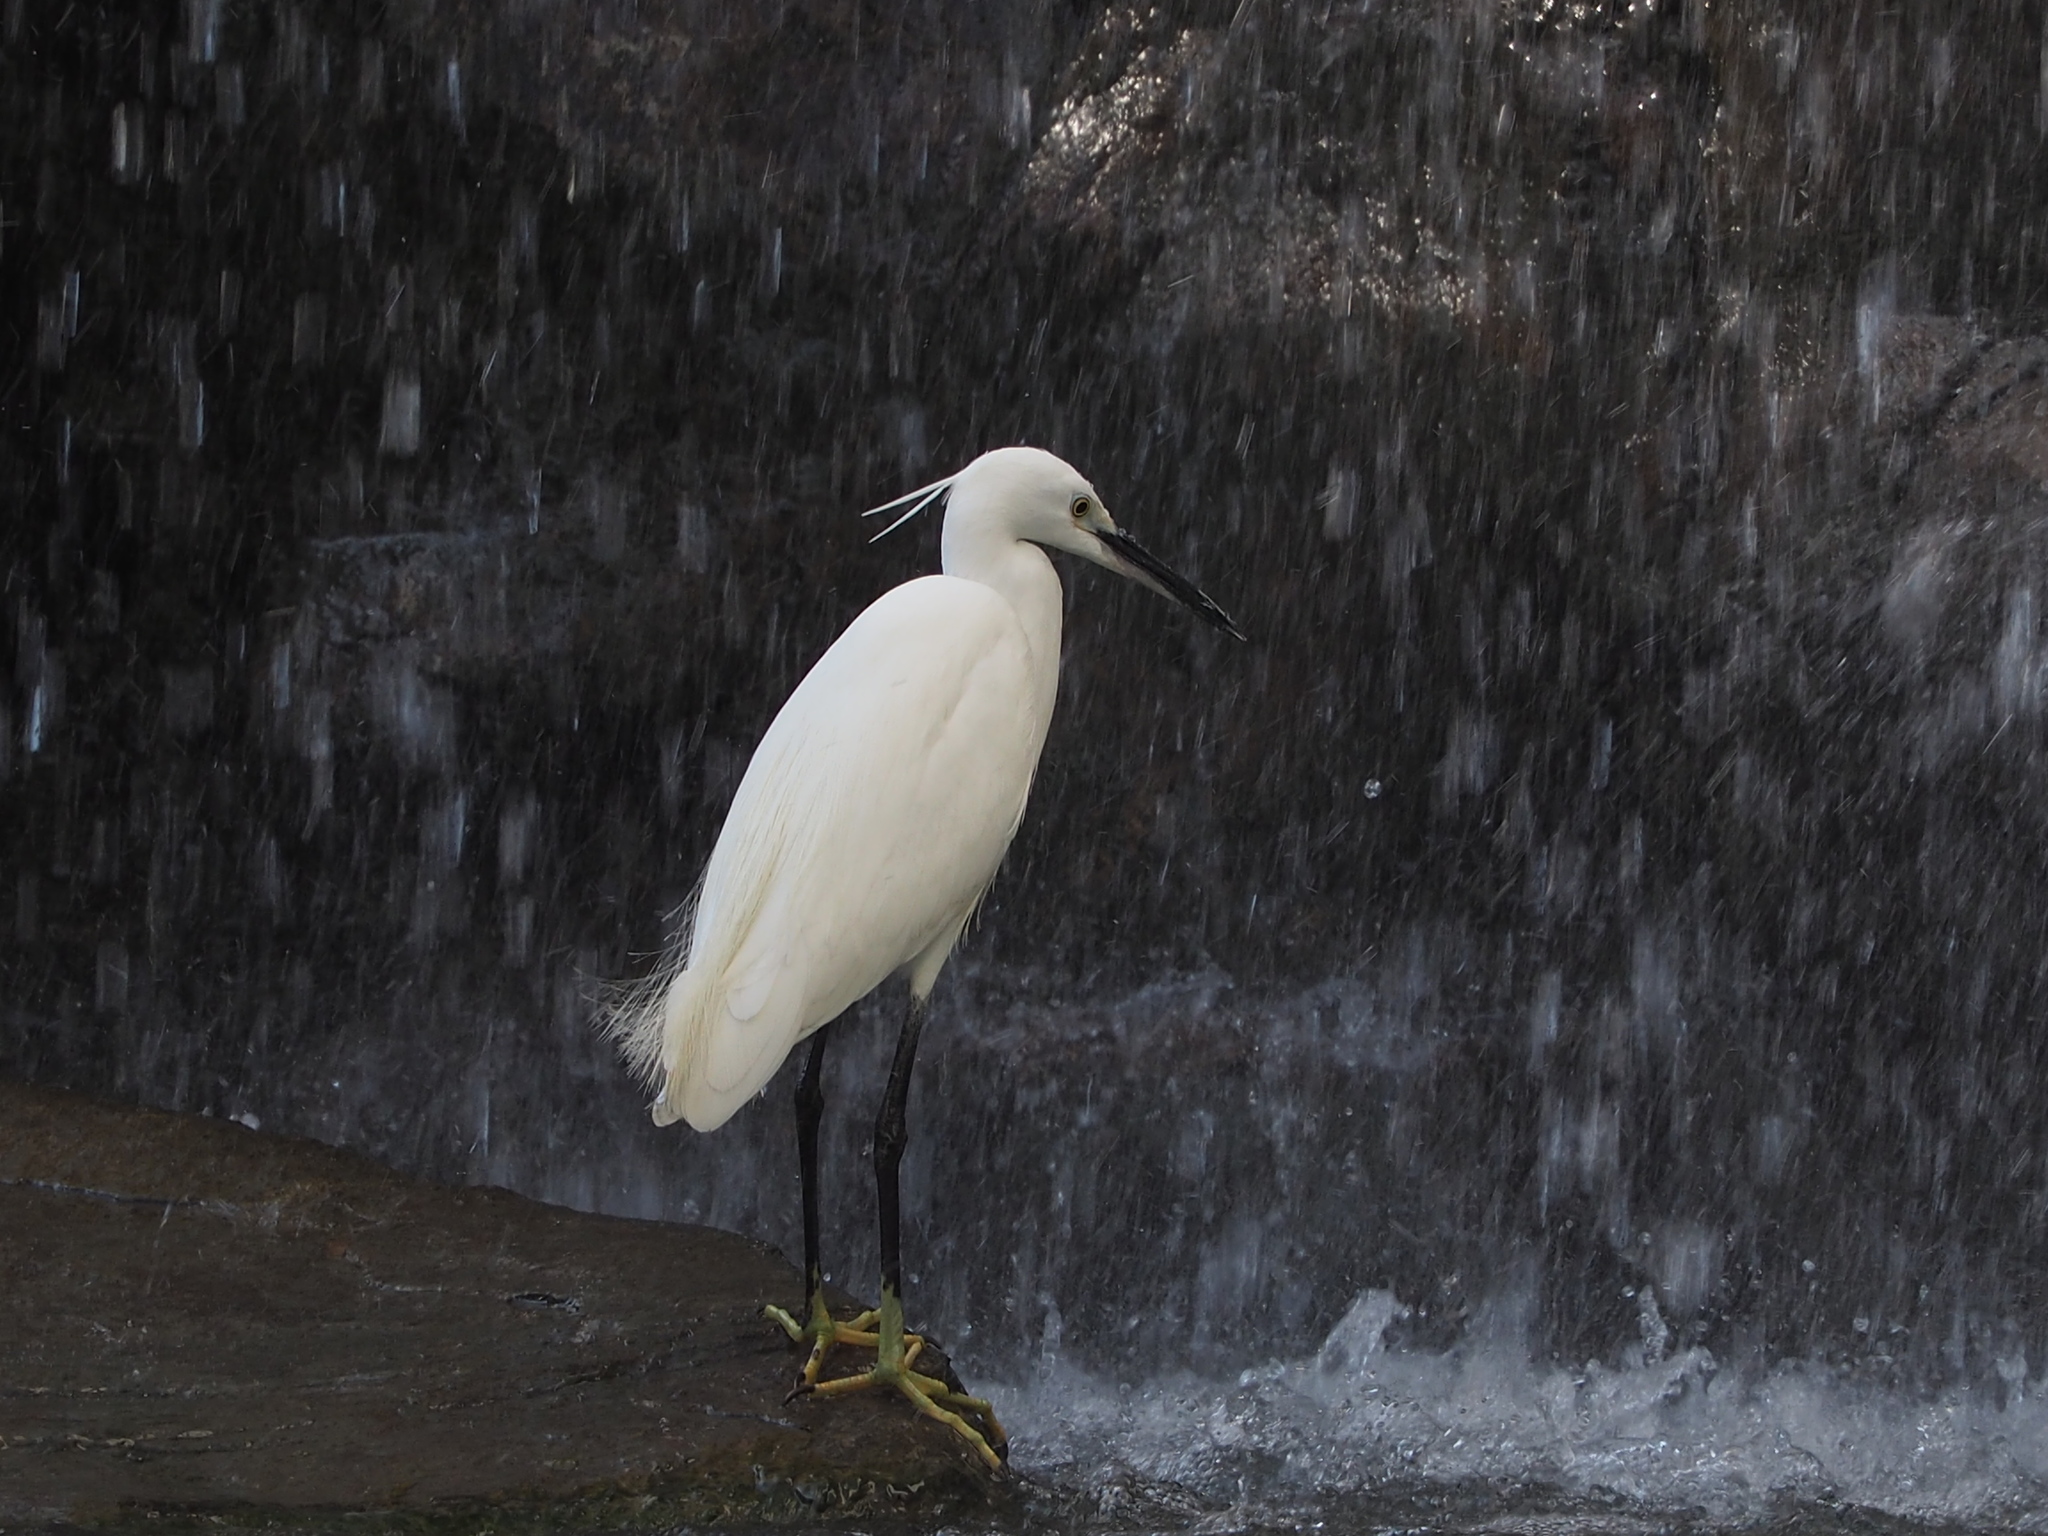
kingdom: Animalia
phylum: Chordata
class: Aves
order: Pelecaniformes
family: Ardeidae
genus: Egretta
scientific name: Egretta garzetta
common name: Little egret
